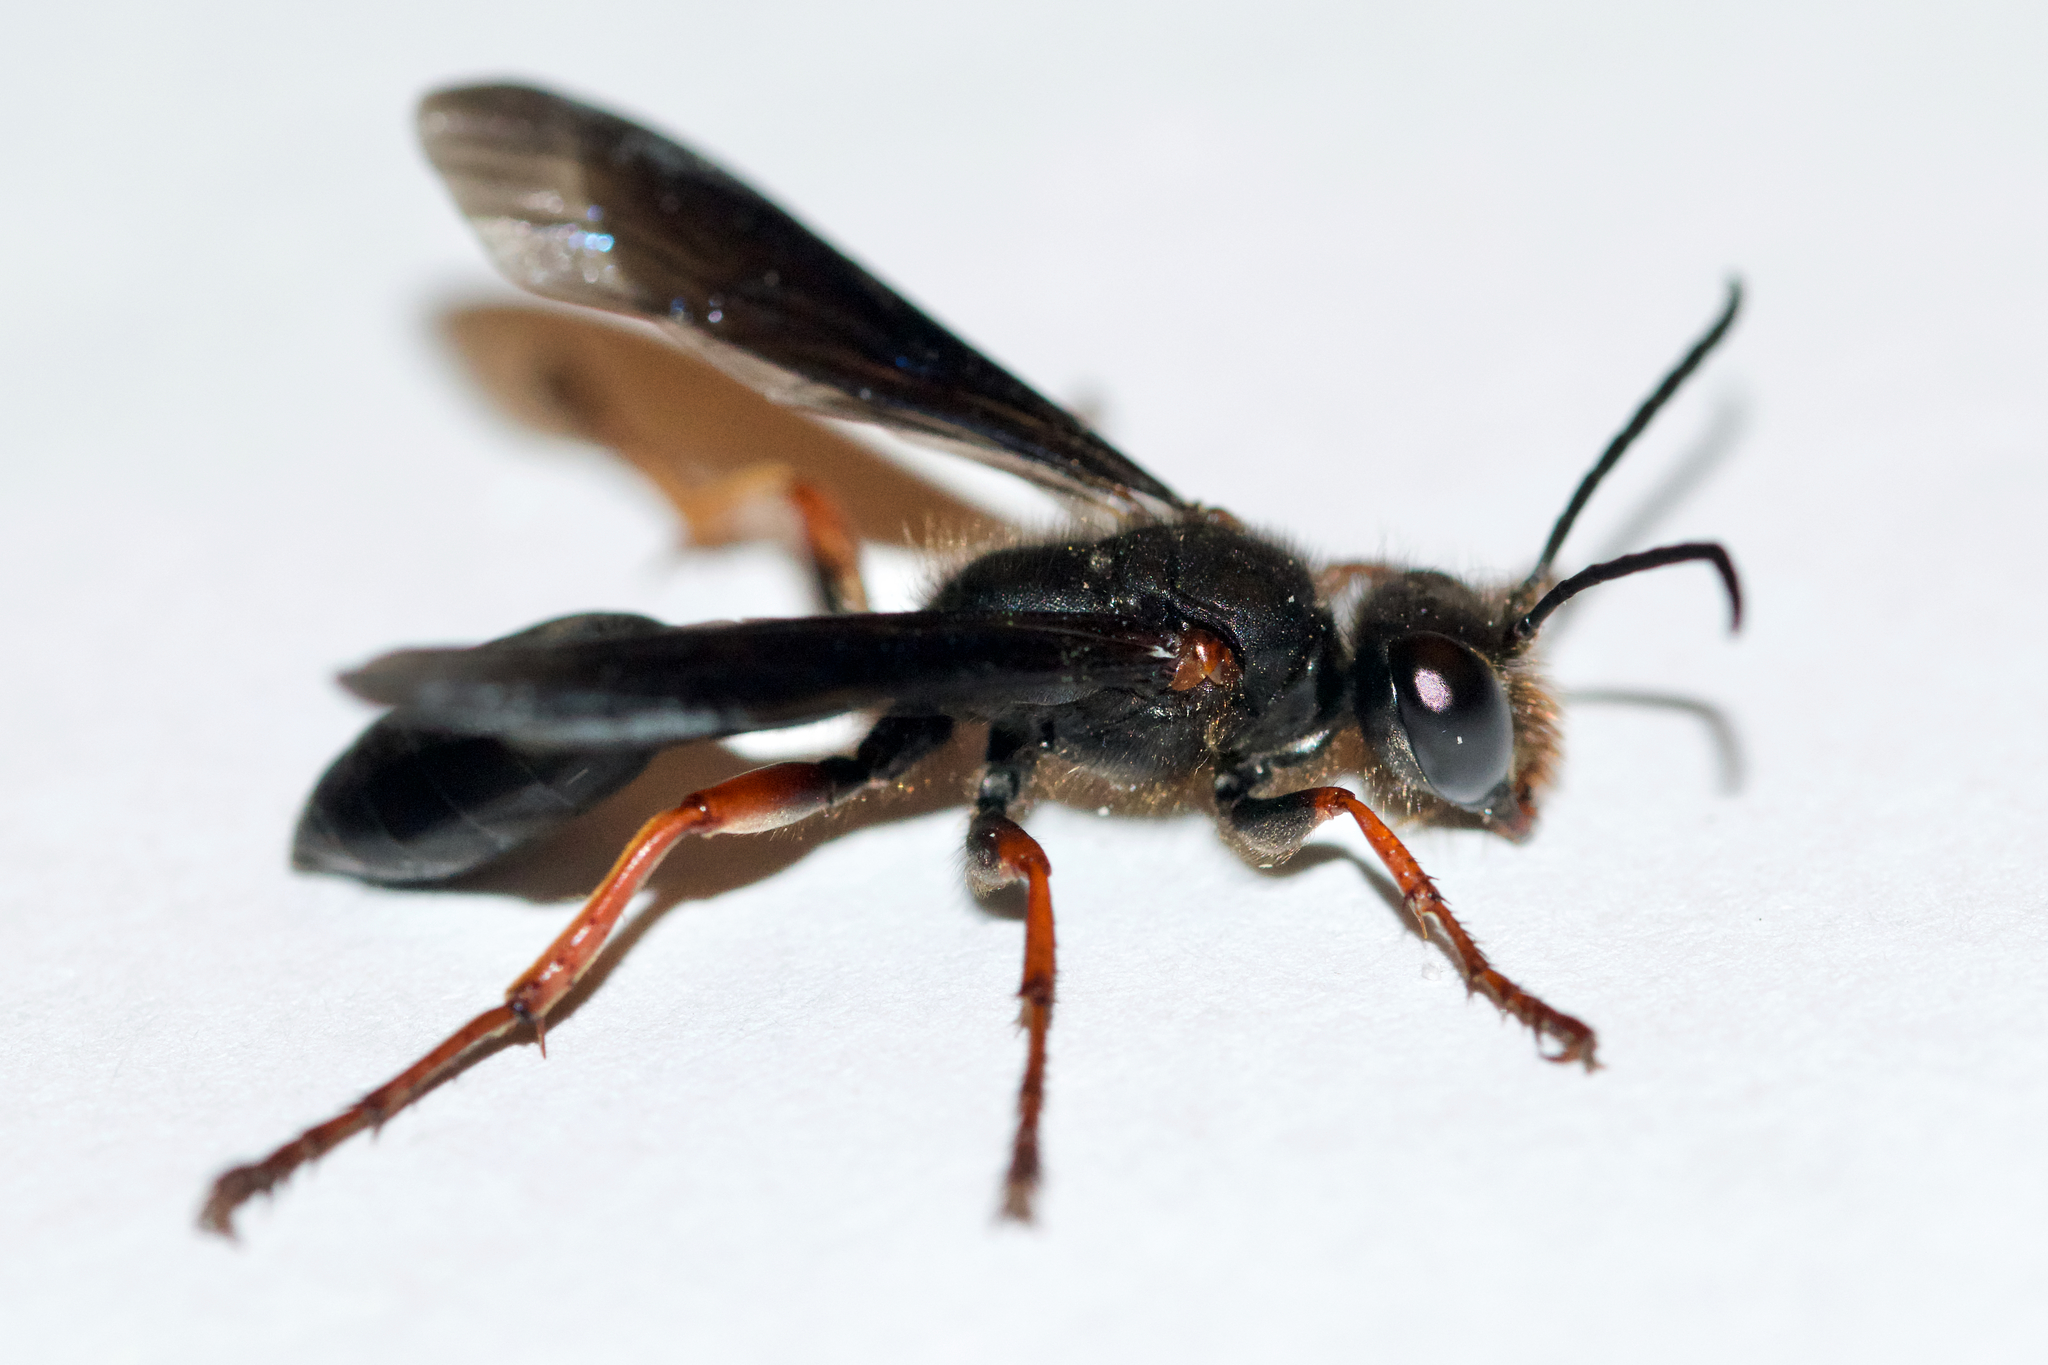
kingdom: Animalia
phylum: Arthropoda
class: Insecta
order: Hymenoptera
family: Sphecidae
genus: Isodontia
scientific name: Isodontia auripes
